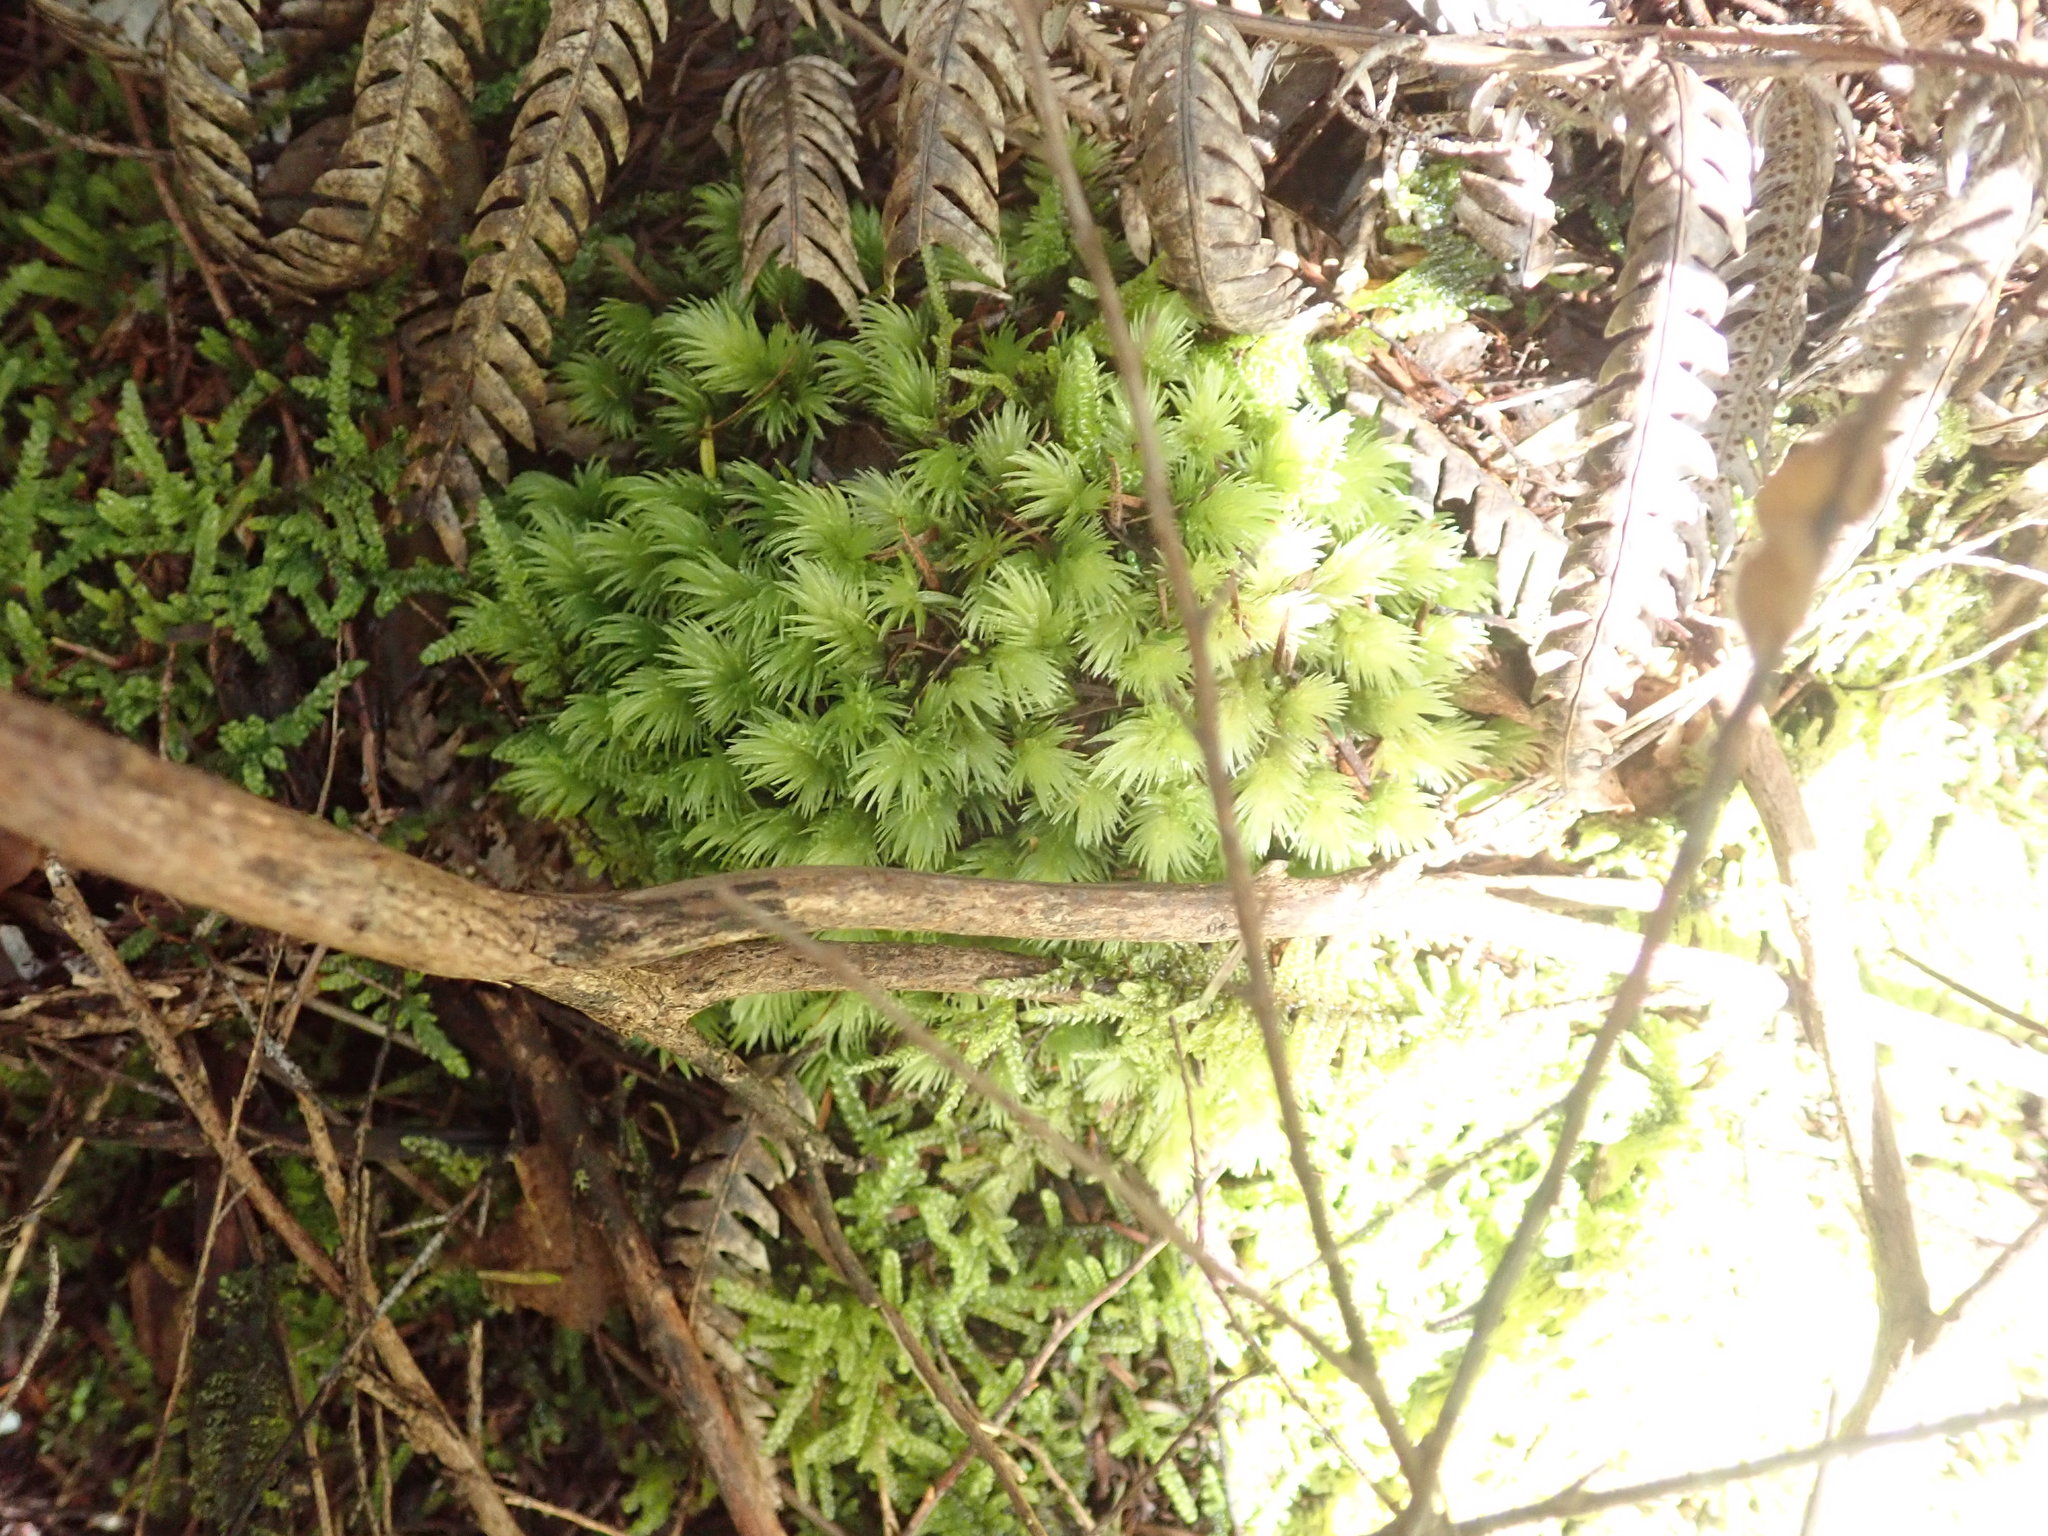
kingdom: Plantae
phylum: Bryophyta
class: Bryopsida
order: Dicranales
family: Leucobryaceae
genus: Leucobryum
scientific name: Leucobryum javense
